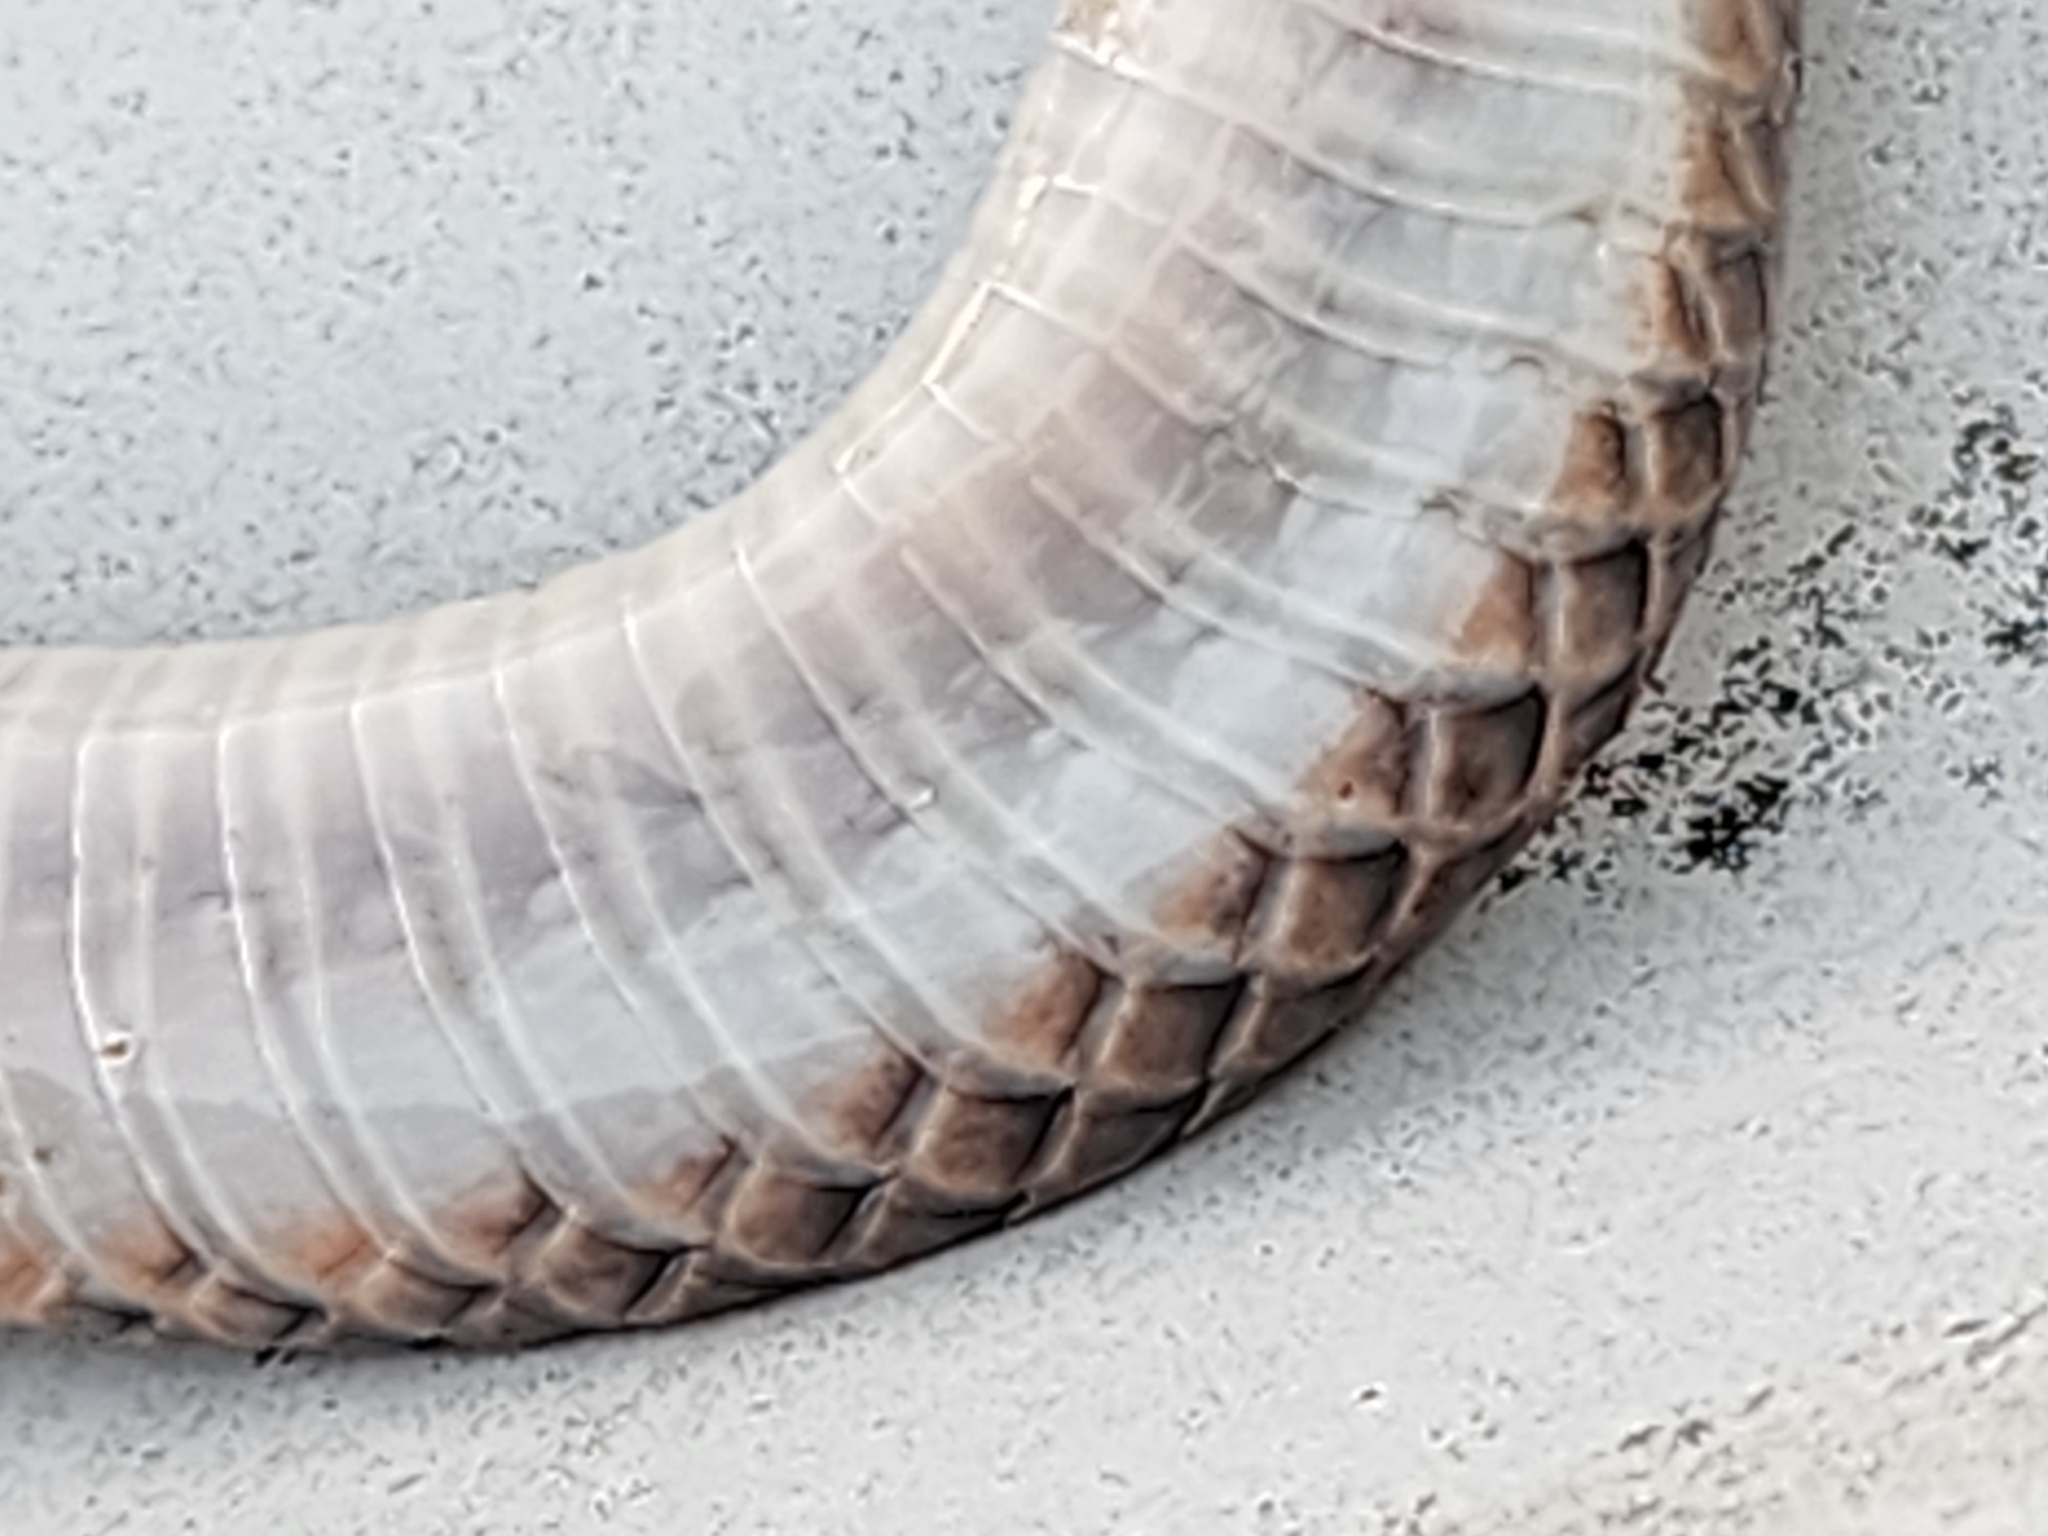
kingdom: Animalia
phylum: Chordata
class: Squamata
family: Elapidae
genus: Cryptophis
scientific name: Cryptophis boschmai
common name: Carpentaria whip snake
